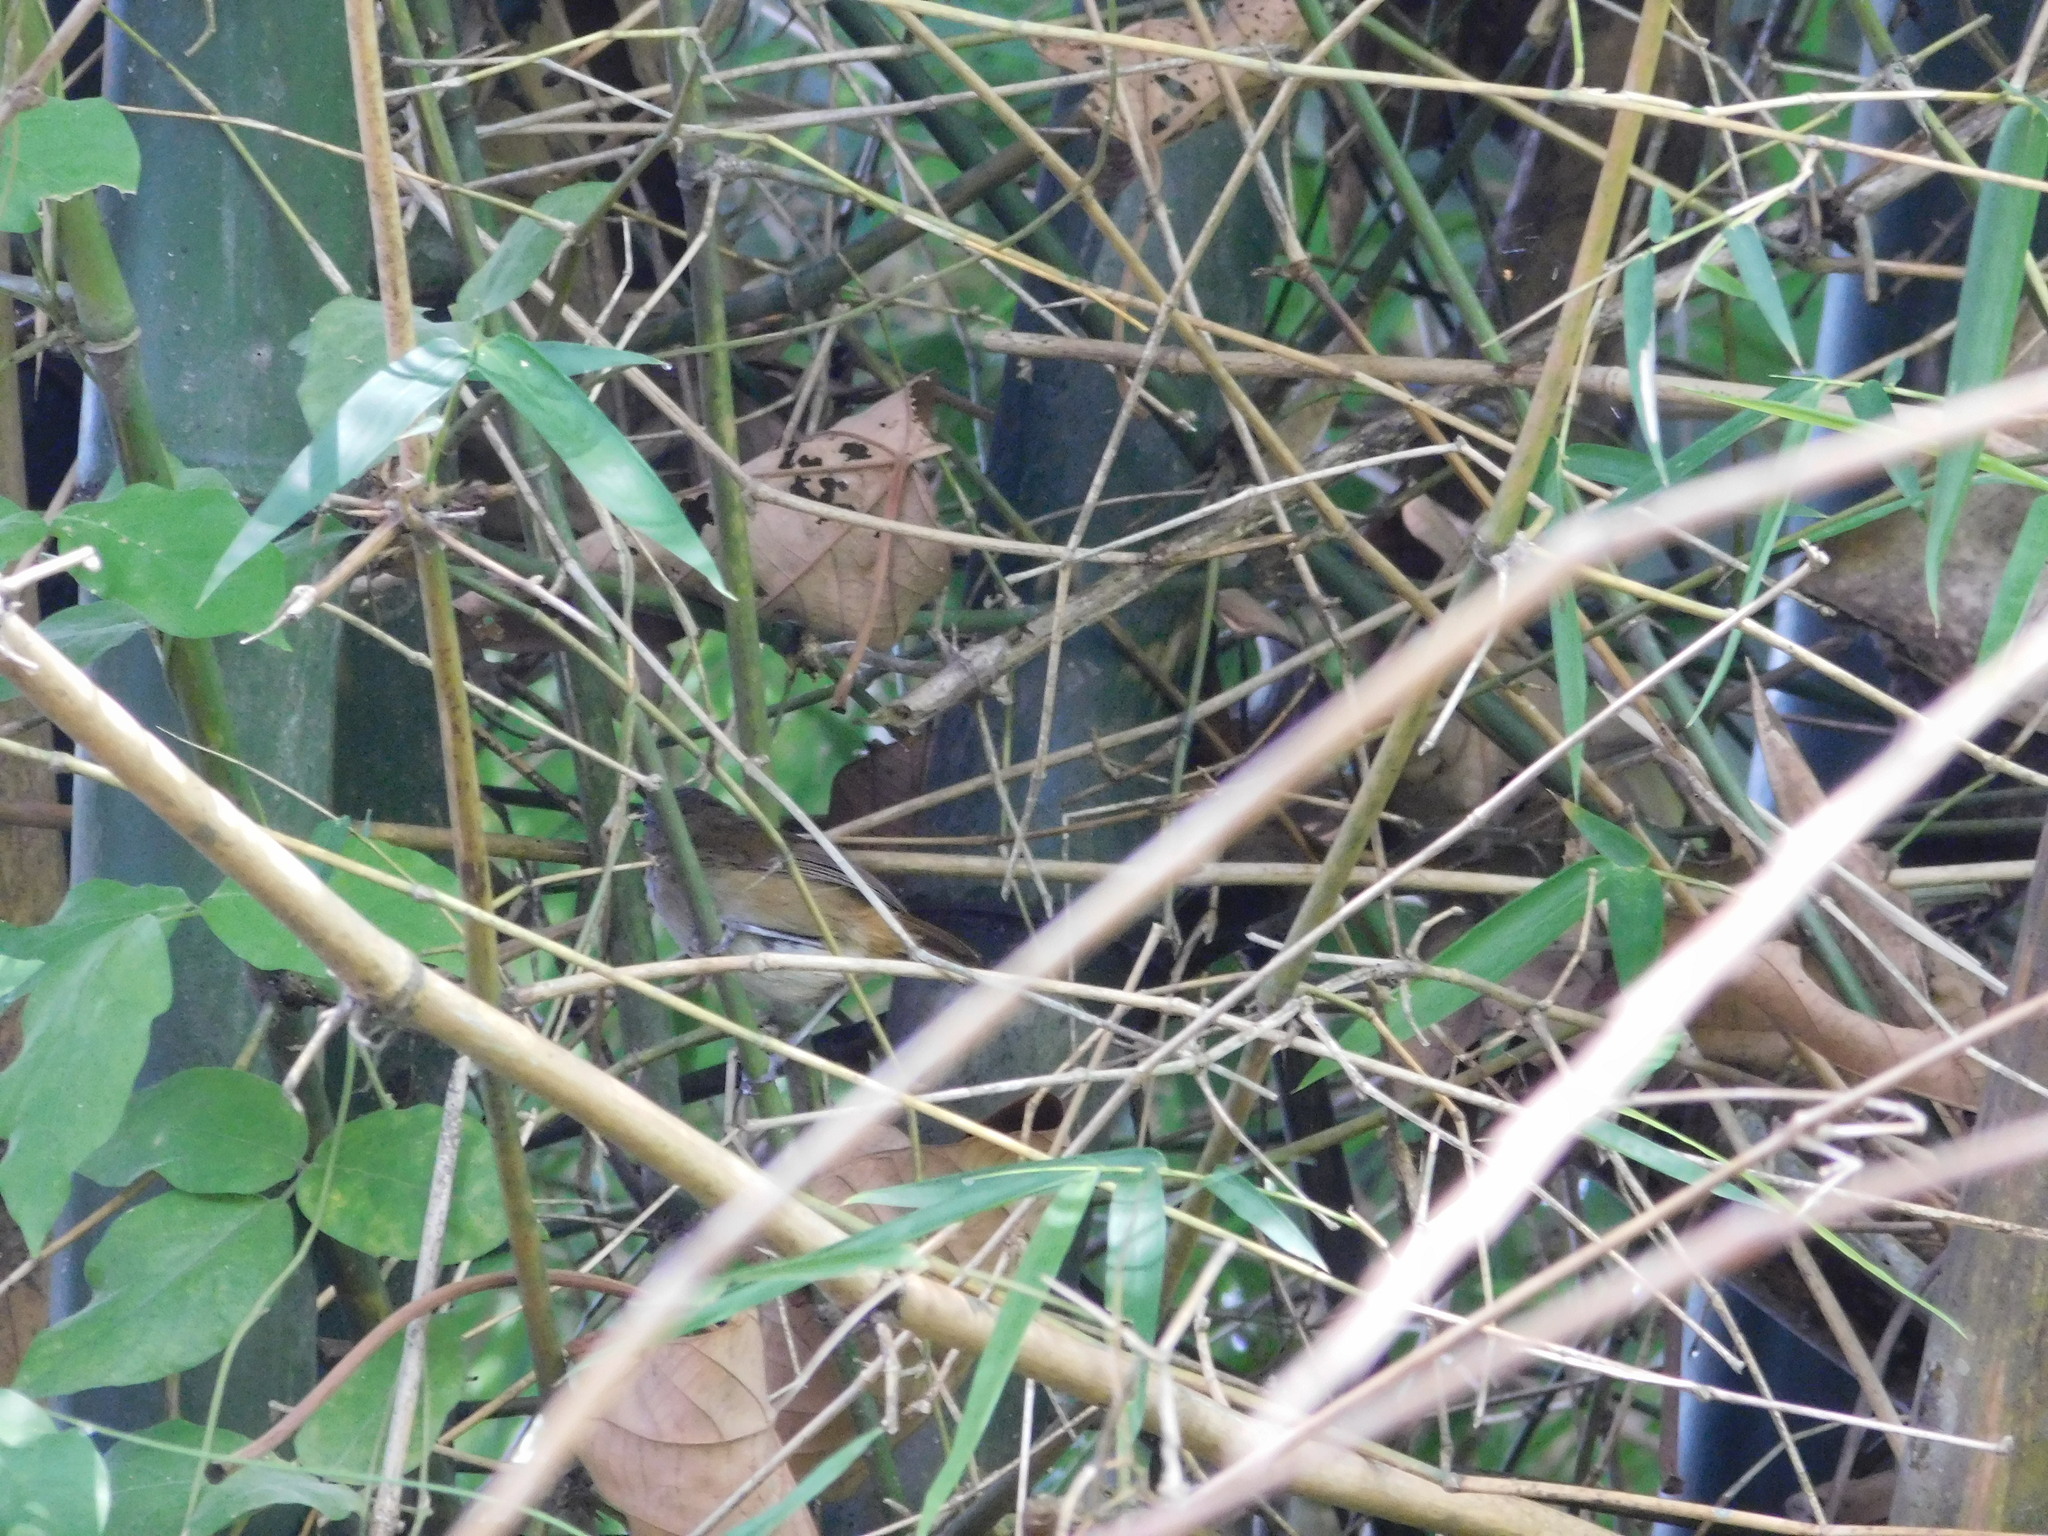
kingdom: Animalia
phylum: Chordata
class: Aves
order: Passeriformes
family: Pellorneidae
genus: Malacocincla
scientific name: Malacocincla sepiaria
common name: Horsfield's babbler
